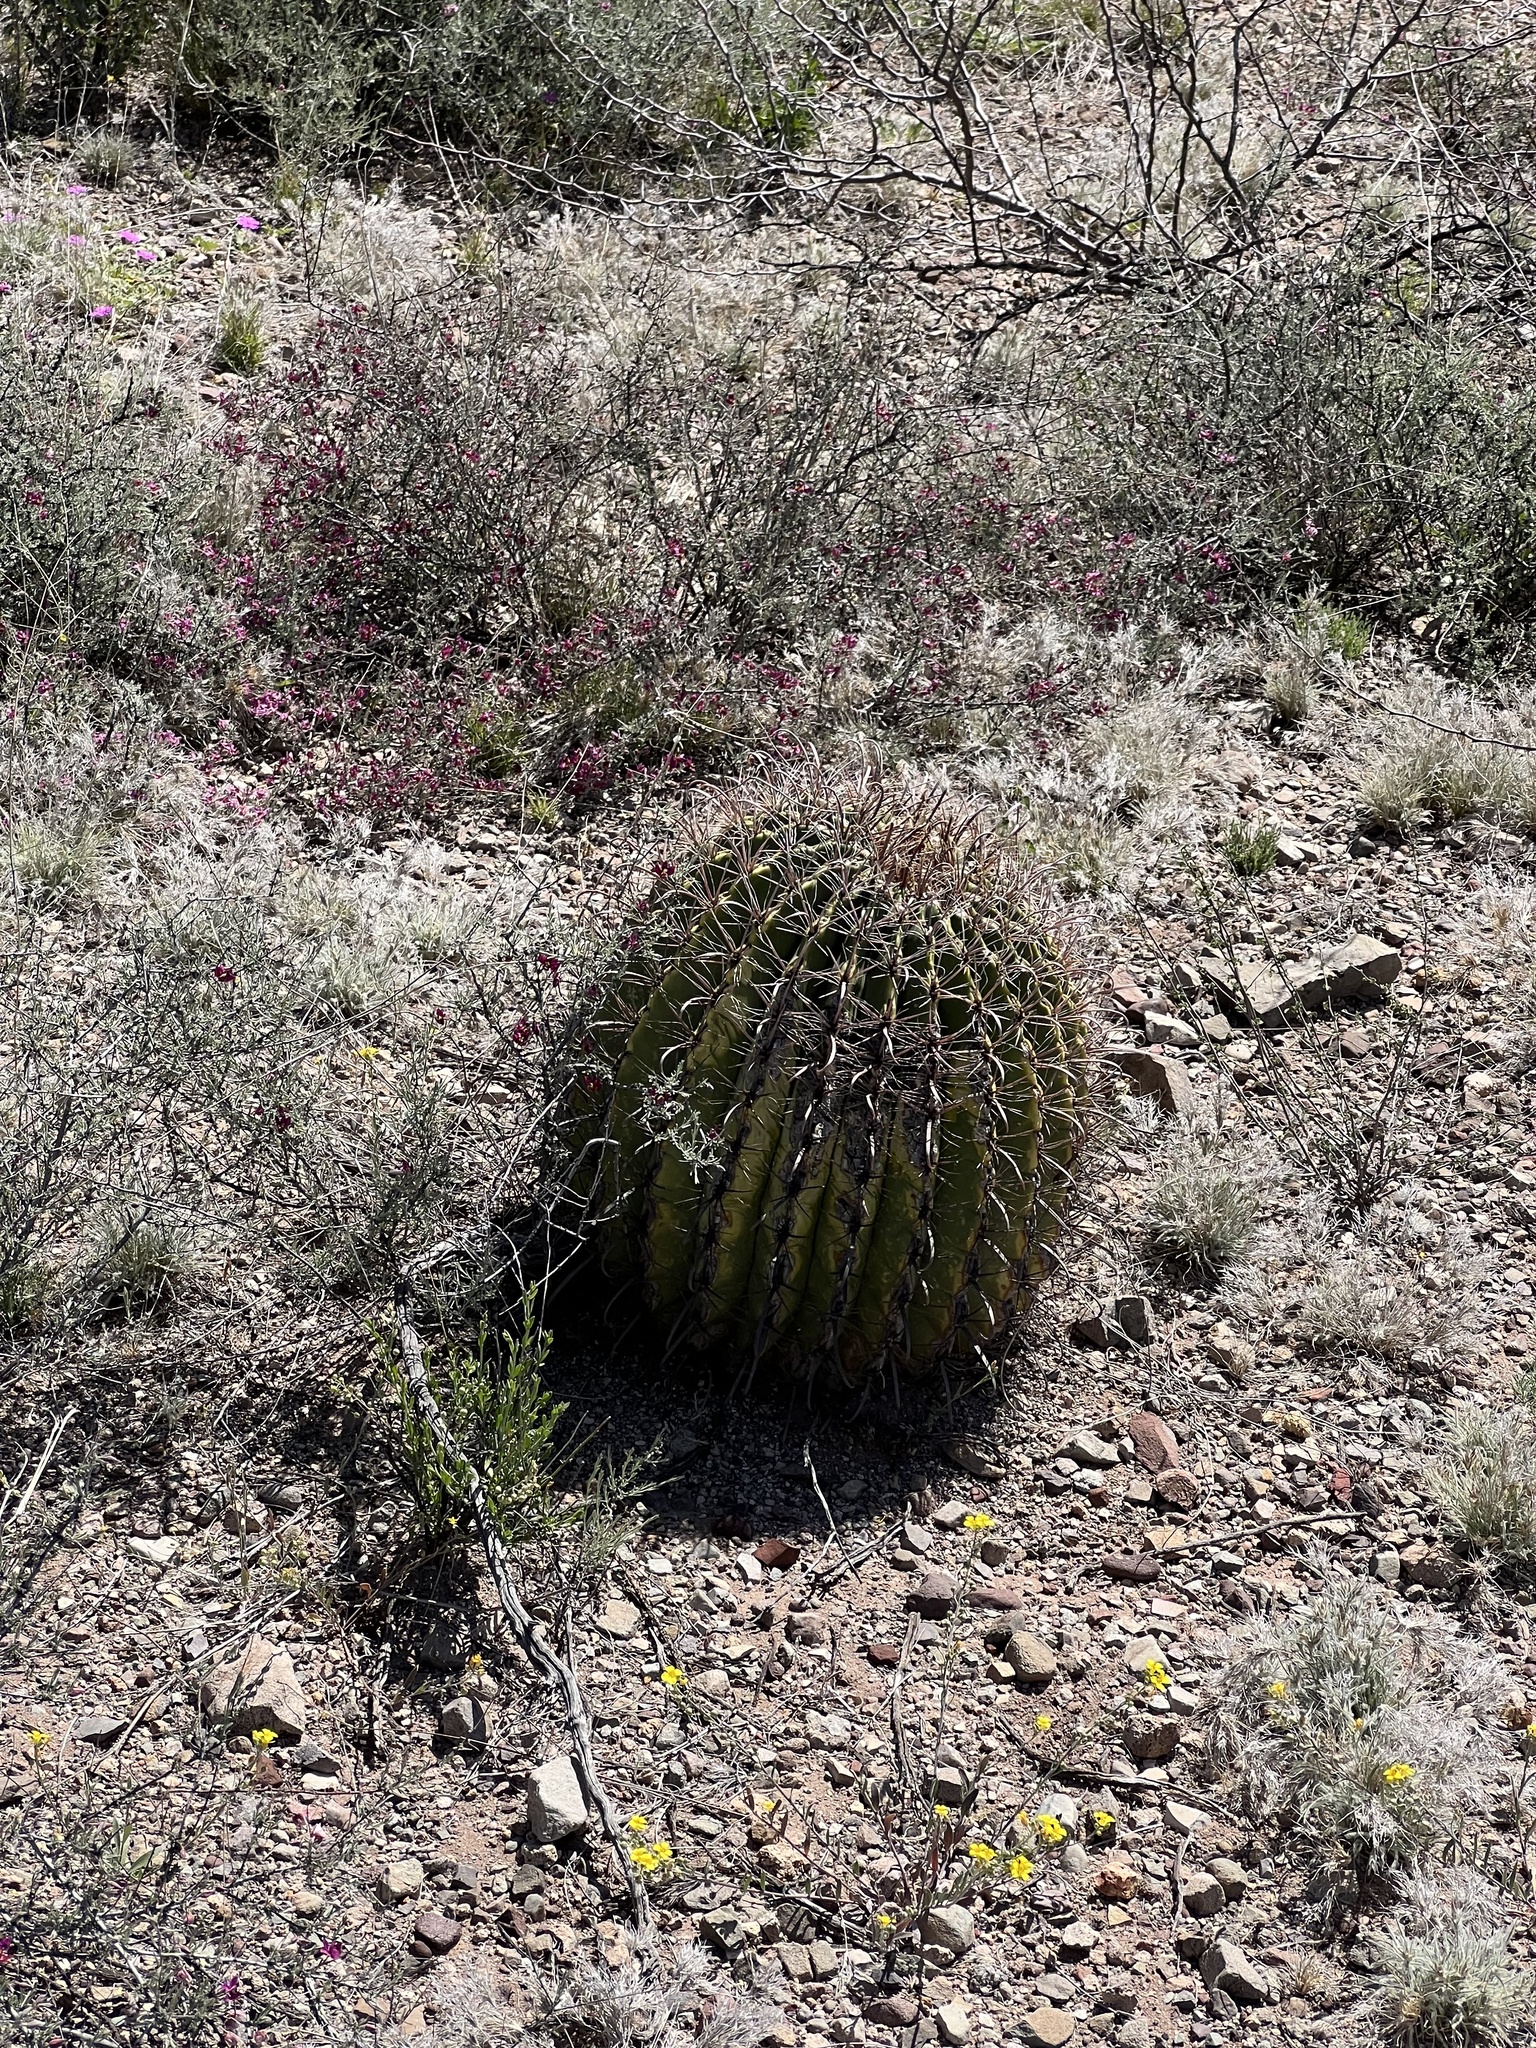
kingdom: Plantae
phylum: Tracheophyta
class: Magnoliopsida
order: Caryophyllales
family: Cactaceae
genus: Ferocactus
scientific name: Ferocactus wislizeni
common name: Candy barrel cactus
